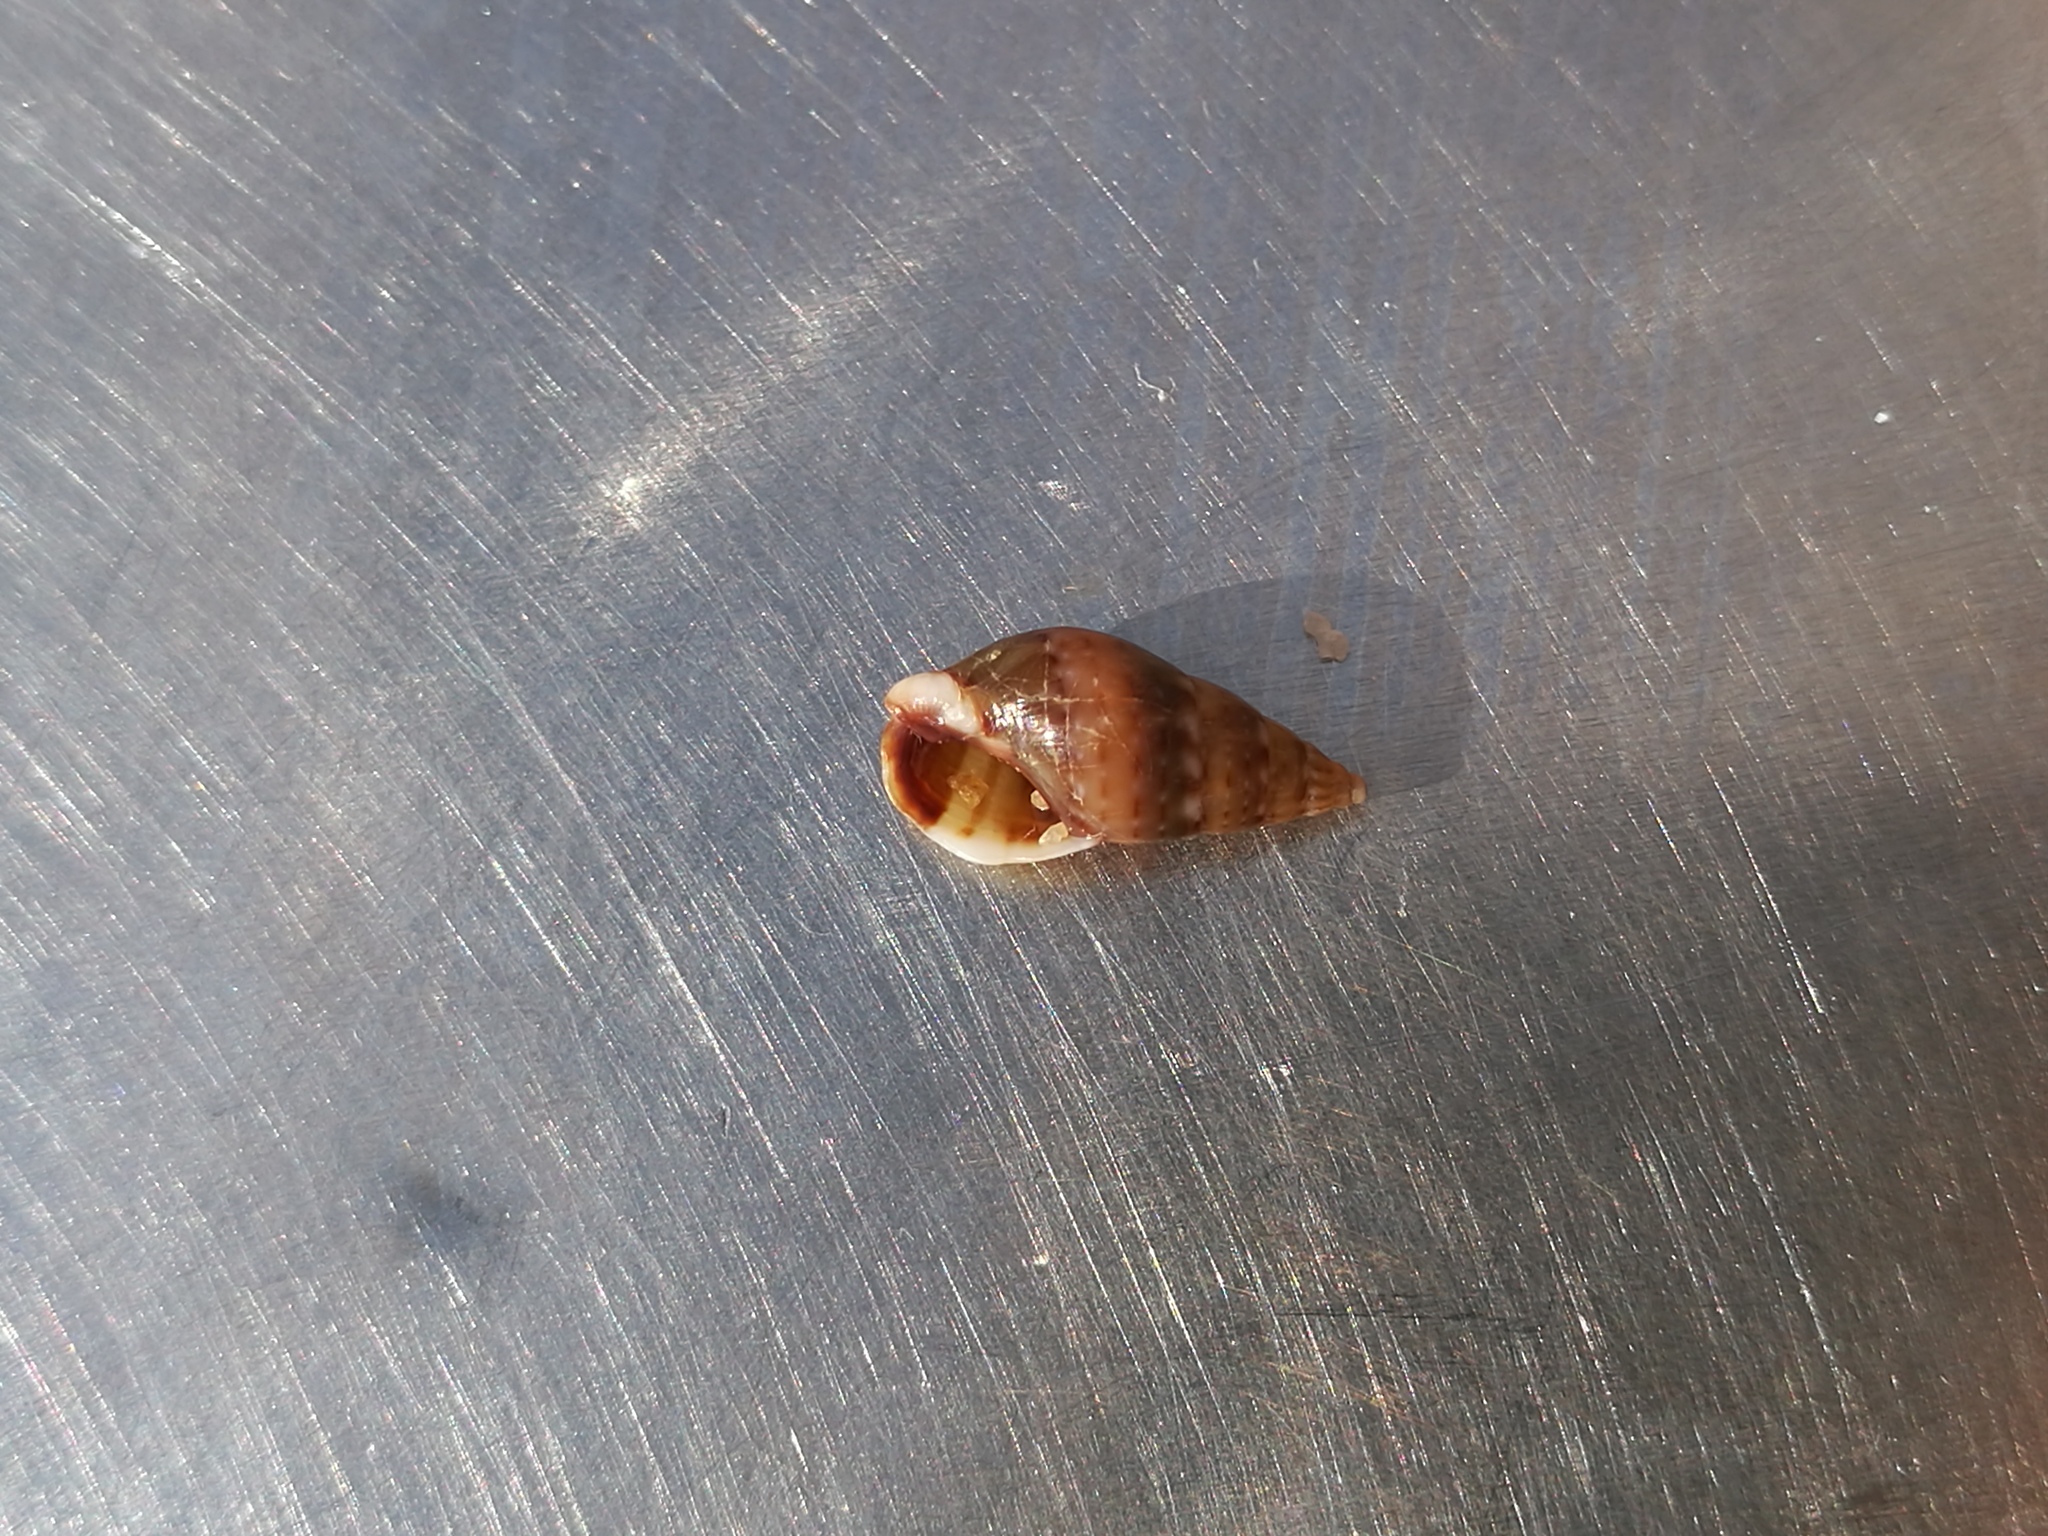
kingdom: Animalia
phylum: Mollusca
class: Gastropoda
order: Neogastropoda
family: Nassariidae
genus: Tritia
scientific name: Tritia corniculum
